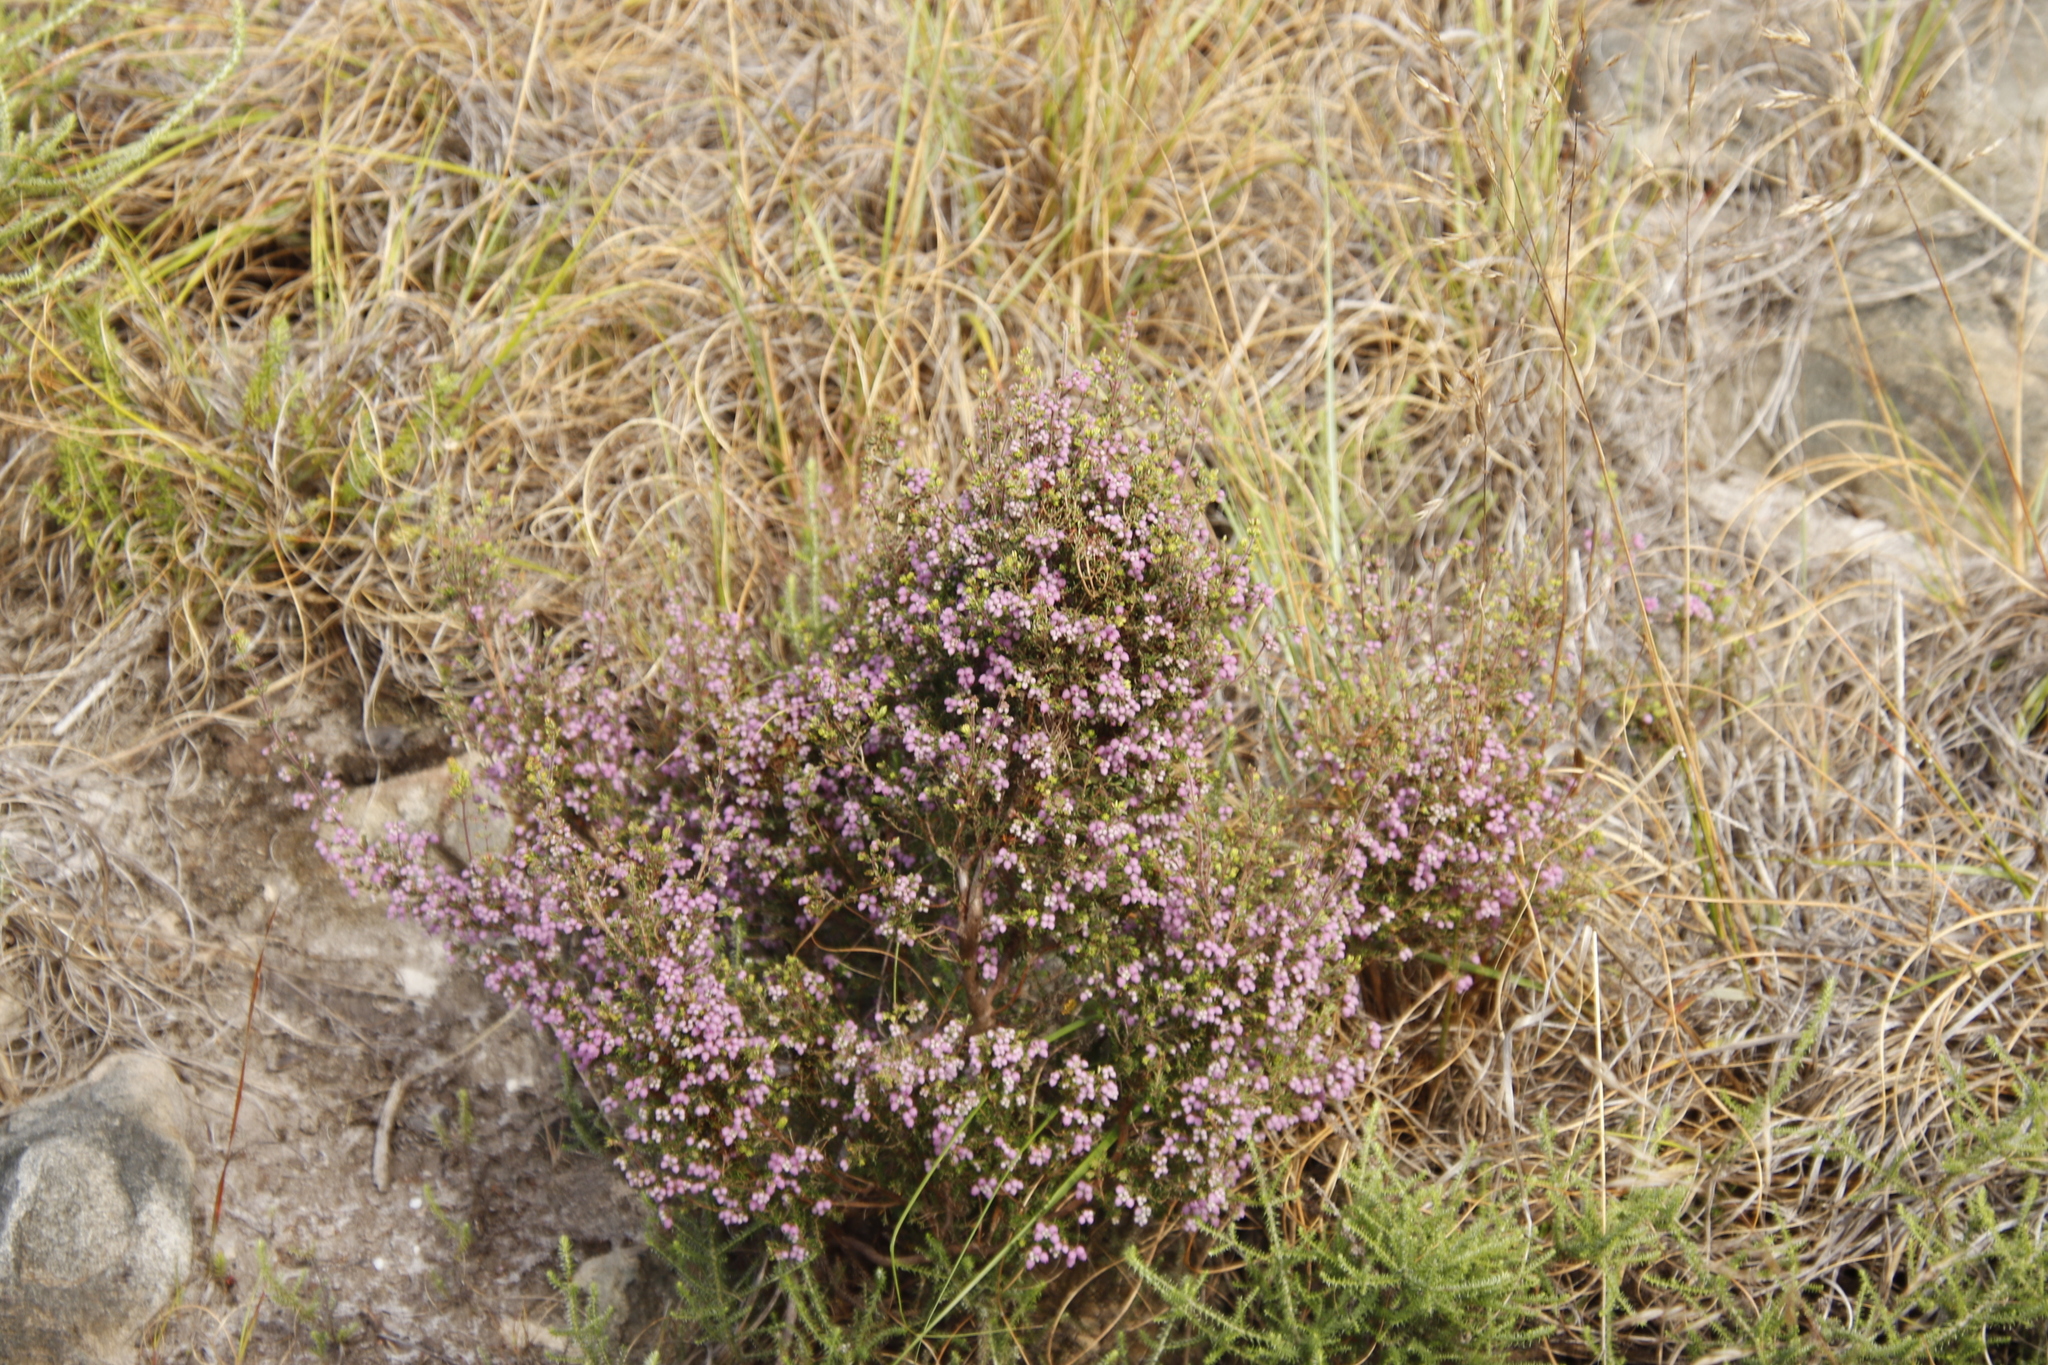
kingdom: Plantae
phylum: Tracheophyta
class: Magnoliopsida
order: Ericales
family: Ericaceae
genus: Erica
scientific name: Erica hirtiflora
